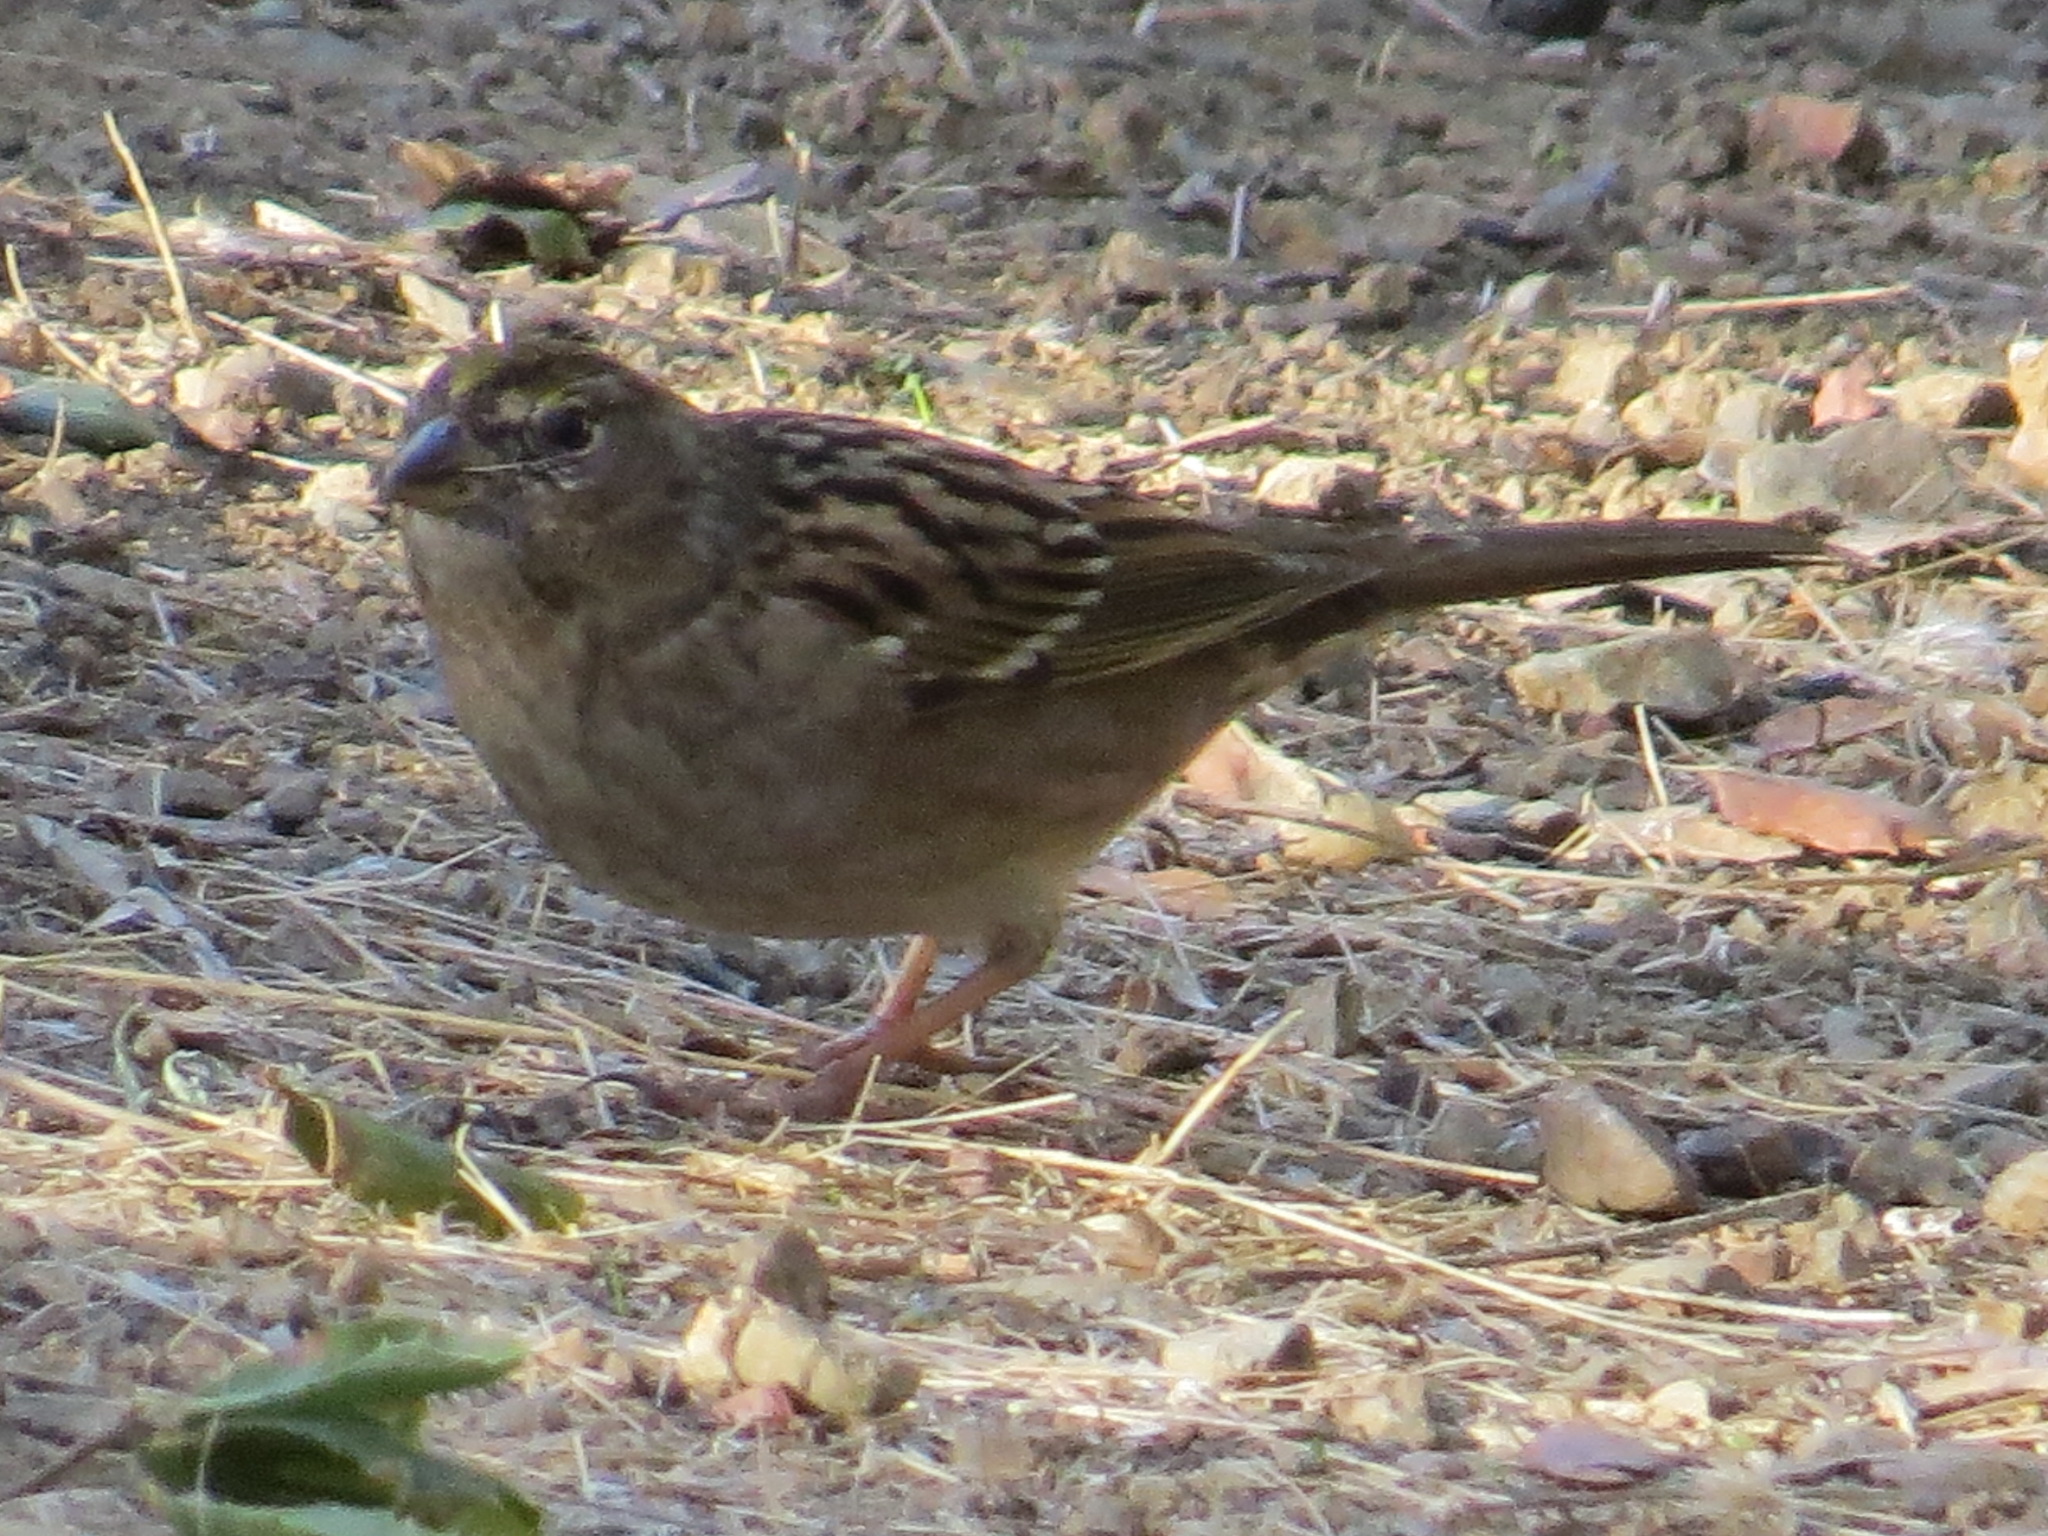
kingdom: Animalia
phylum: Chordata
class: Aves
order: Passeriformes
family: Passerellidae
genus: Zonotrichia
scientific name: Zonotrichia atricapilla
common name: Golden-crowned sparrow
